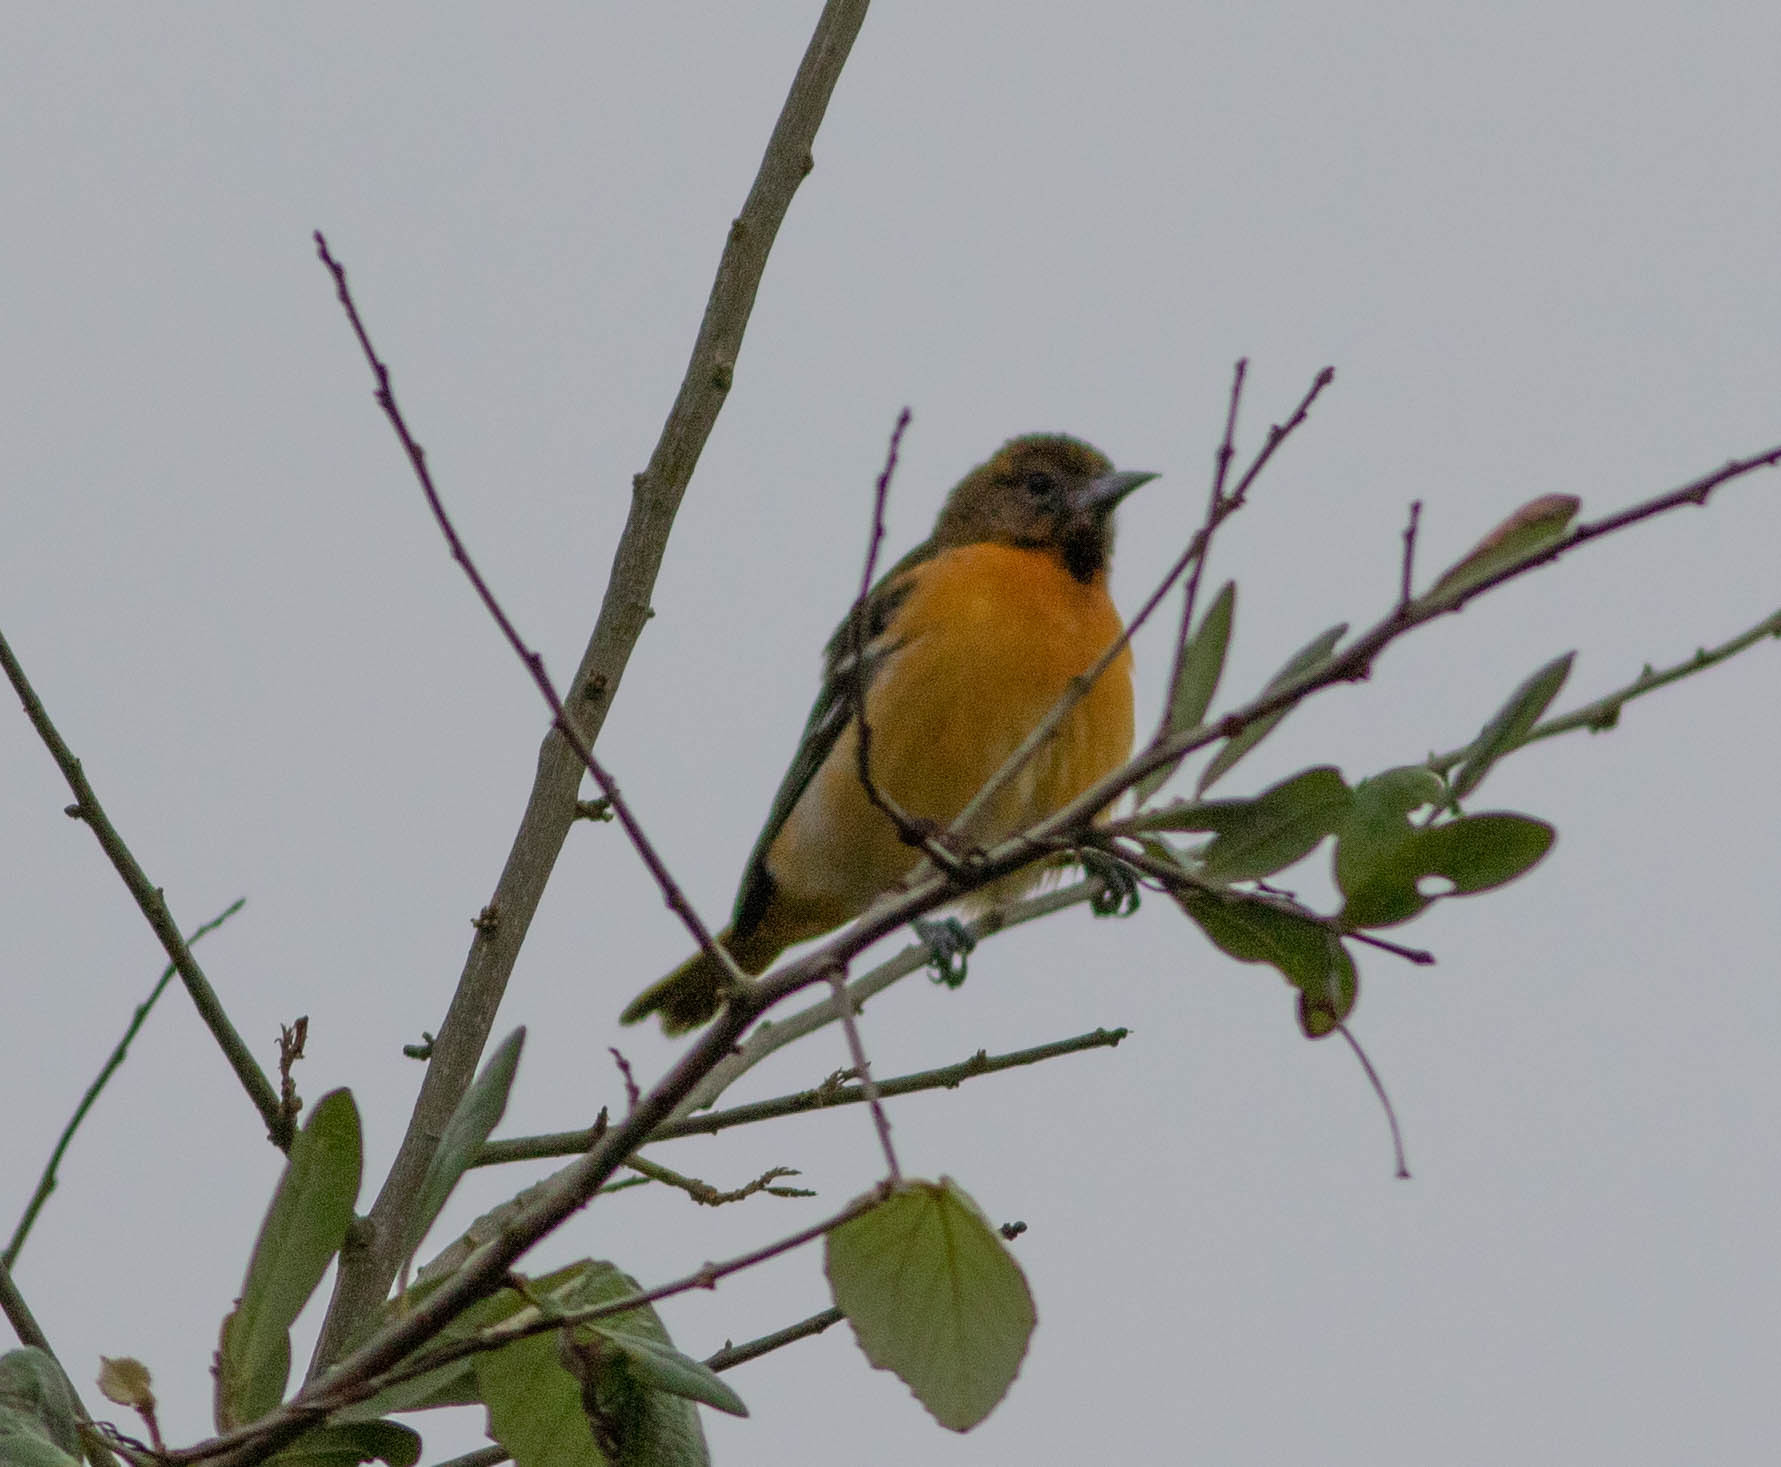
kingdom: Animalia
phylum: Chordata
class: Aves
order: Passeriformes
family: Icteridae
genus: Icterus
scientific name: Icterus galbula
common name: Baltimore oriole
